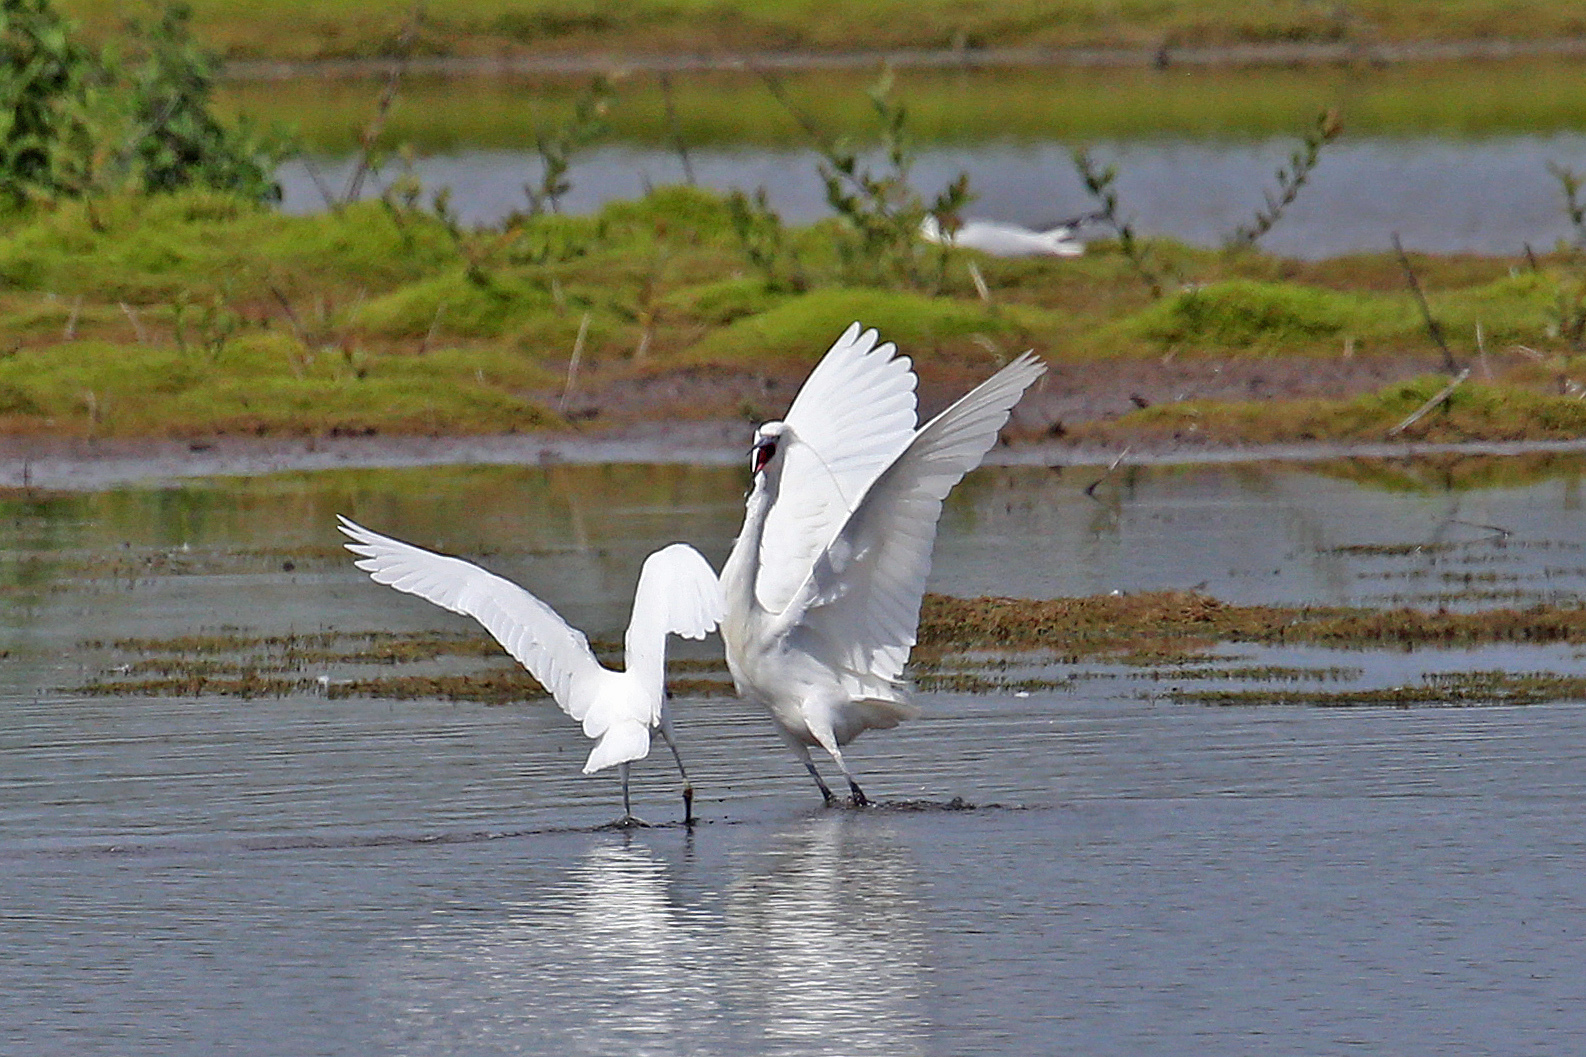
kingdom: Animalia
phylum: Chordata
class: Aves
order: Pelecaniformes
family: Ardeidae
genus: Egretta
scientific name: Egretta garzetta
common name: Little egret
